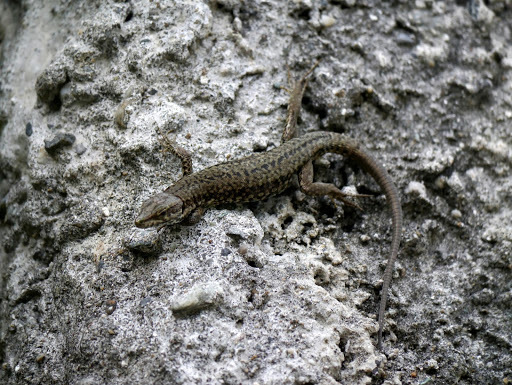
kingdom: Animalia
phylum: Chordata
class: Squamata
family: Lacertidae
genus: Podarcis
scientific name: Podarcis muralis
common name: Common wall lizard
